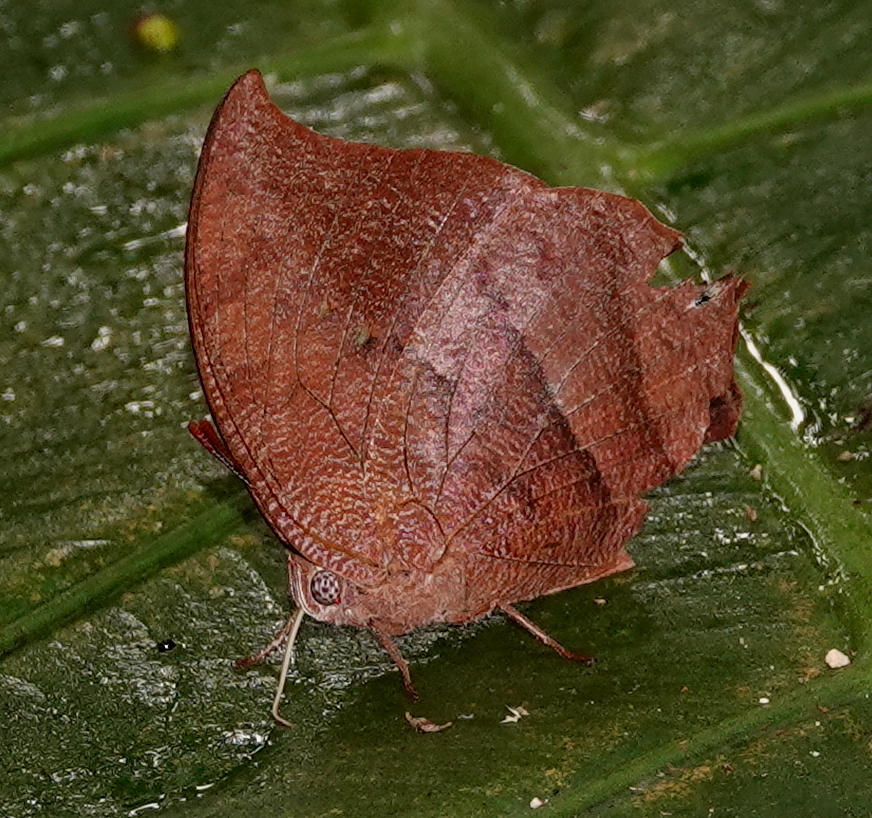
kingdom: Animalia
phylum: Arthropoda
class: Insecta
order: Lepidoptera
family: Nymphalidae
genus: Fountainea
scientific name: Fountainea
